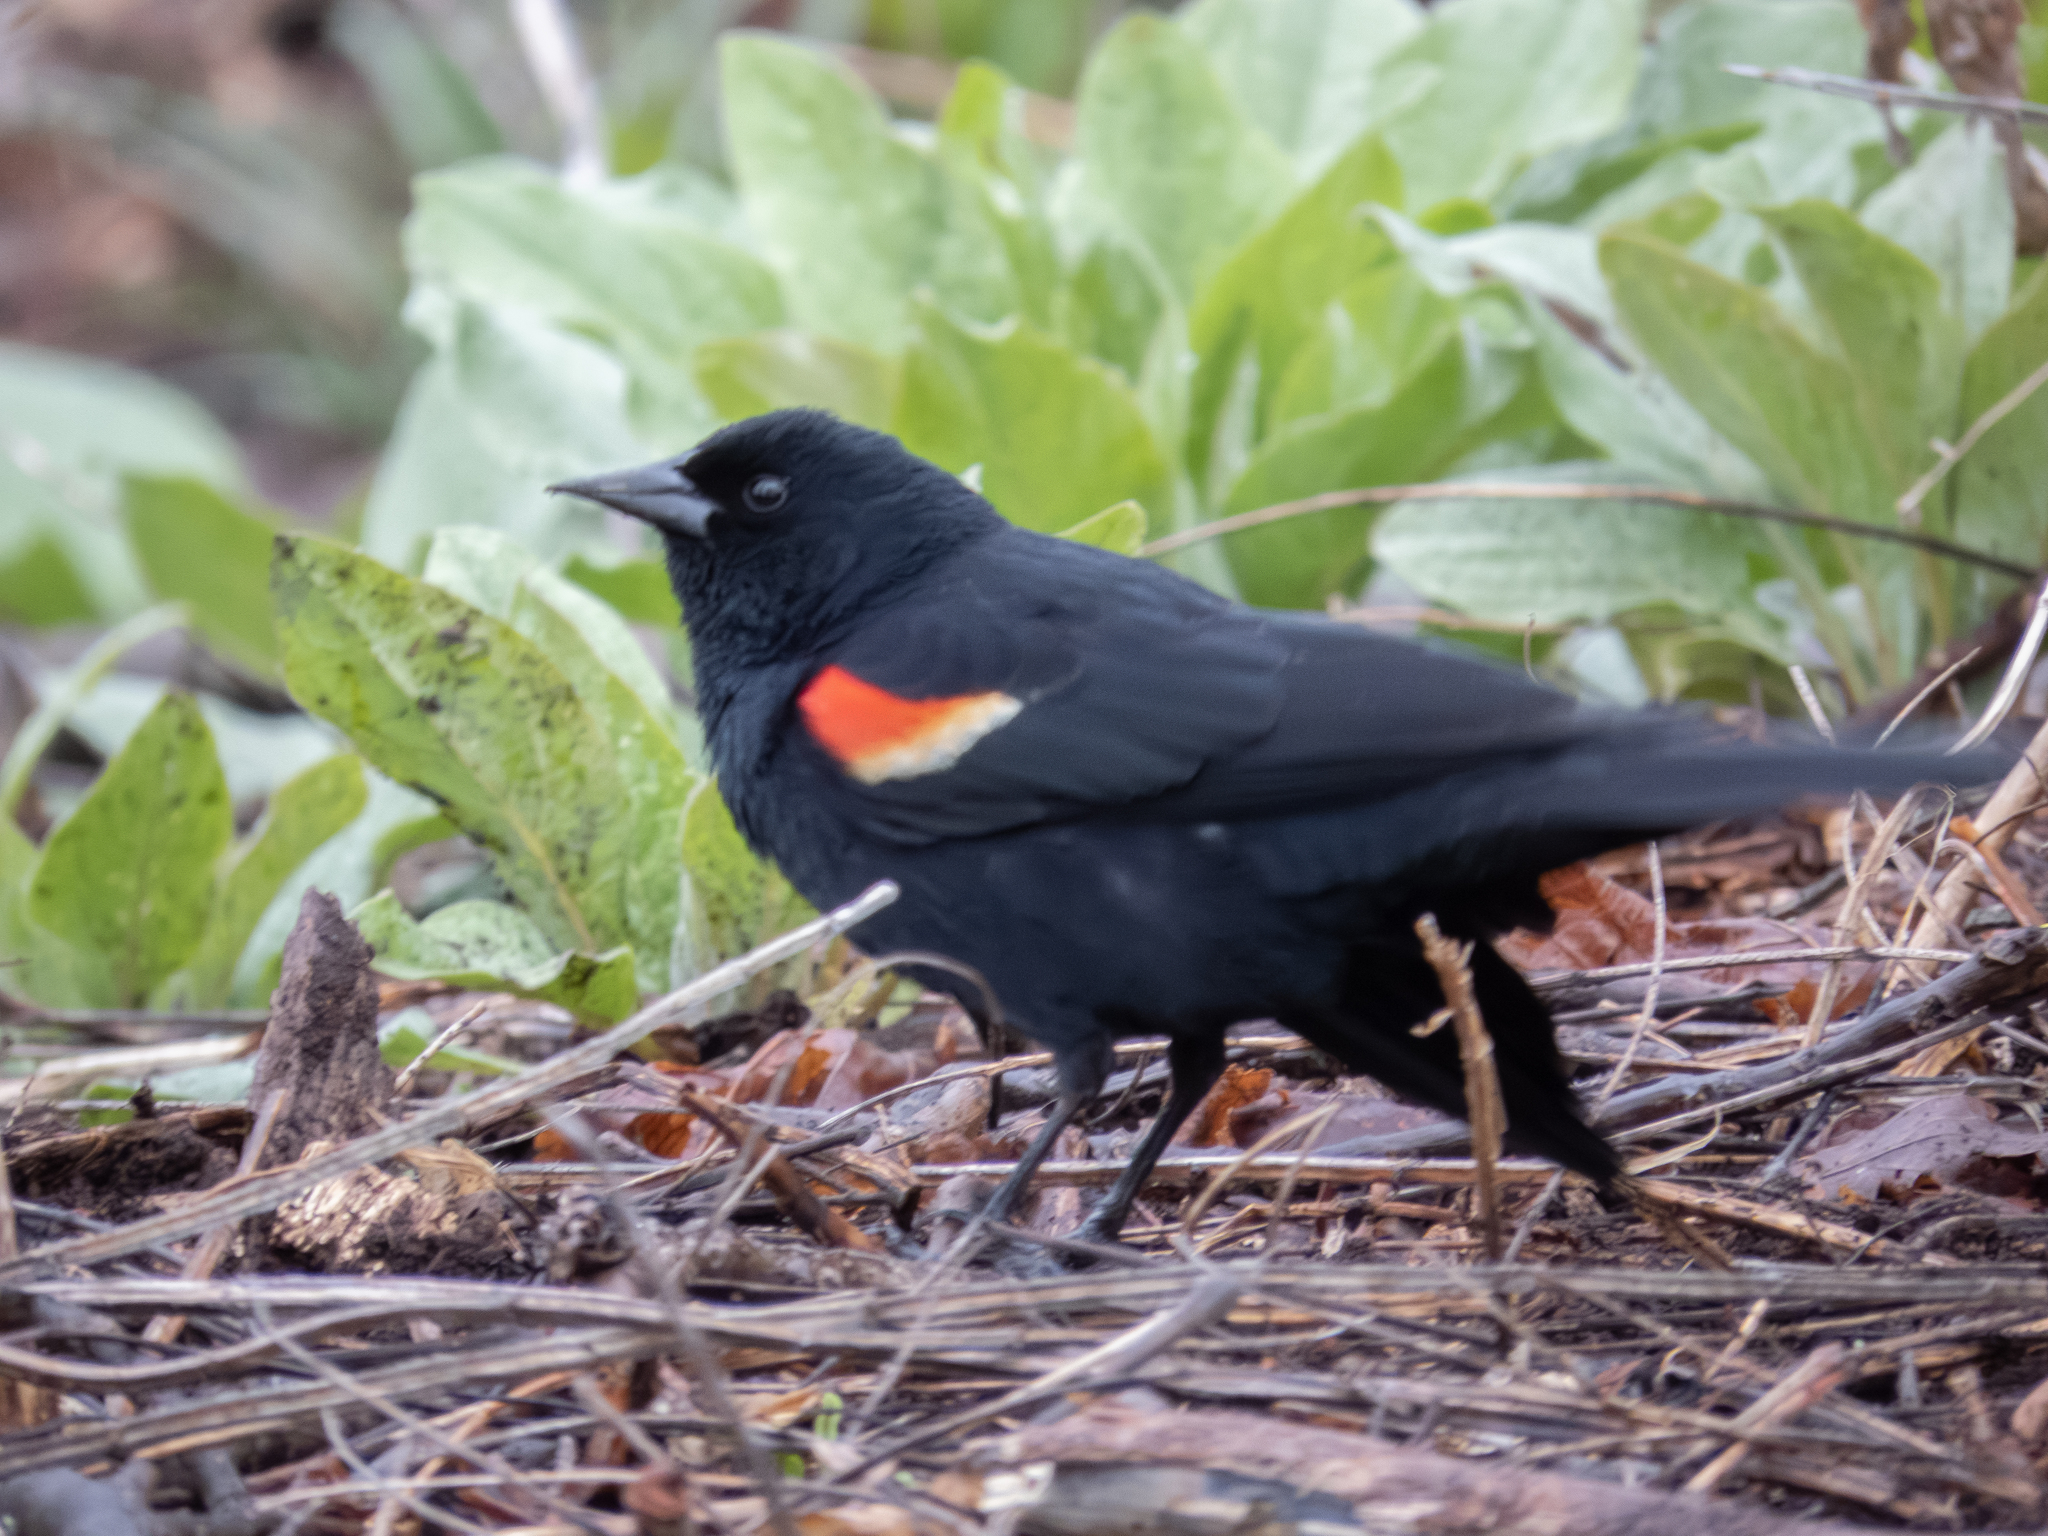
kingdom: Animalia
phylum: Chordata
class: Aves
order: Passeriformes
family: Icteridae
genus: Agelaius
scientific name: Agelaius phoeniceus
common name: Red-winged blackbird
